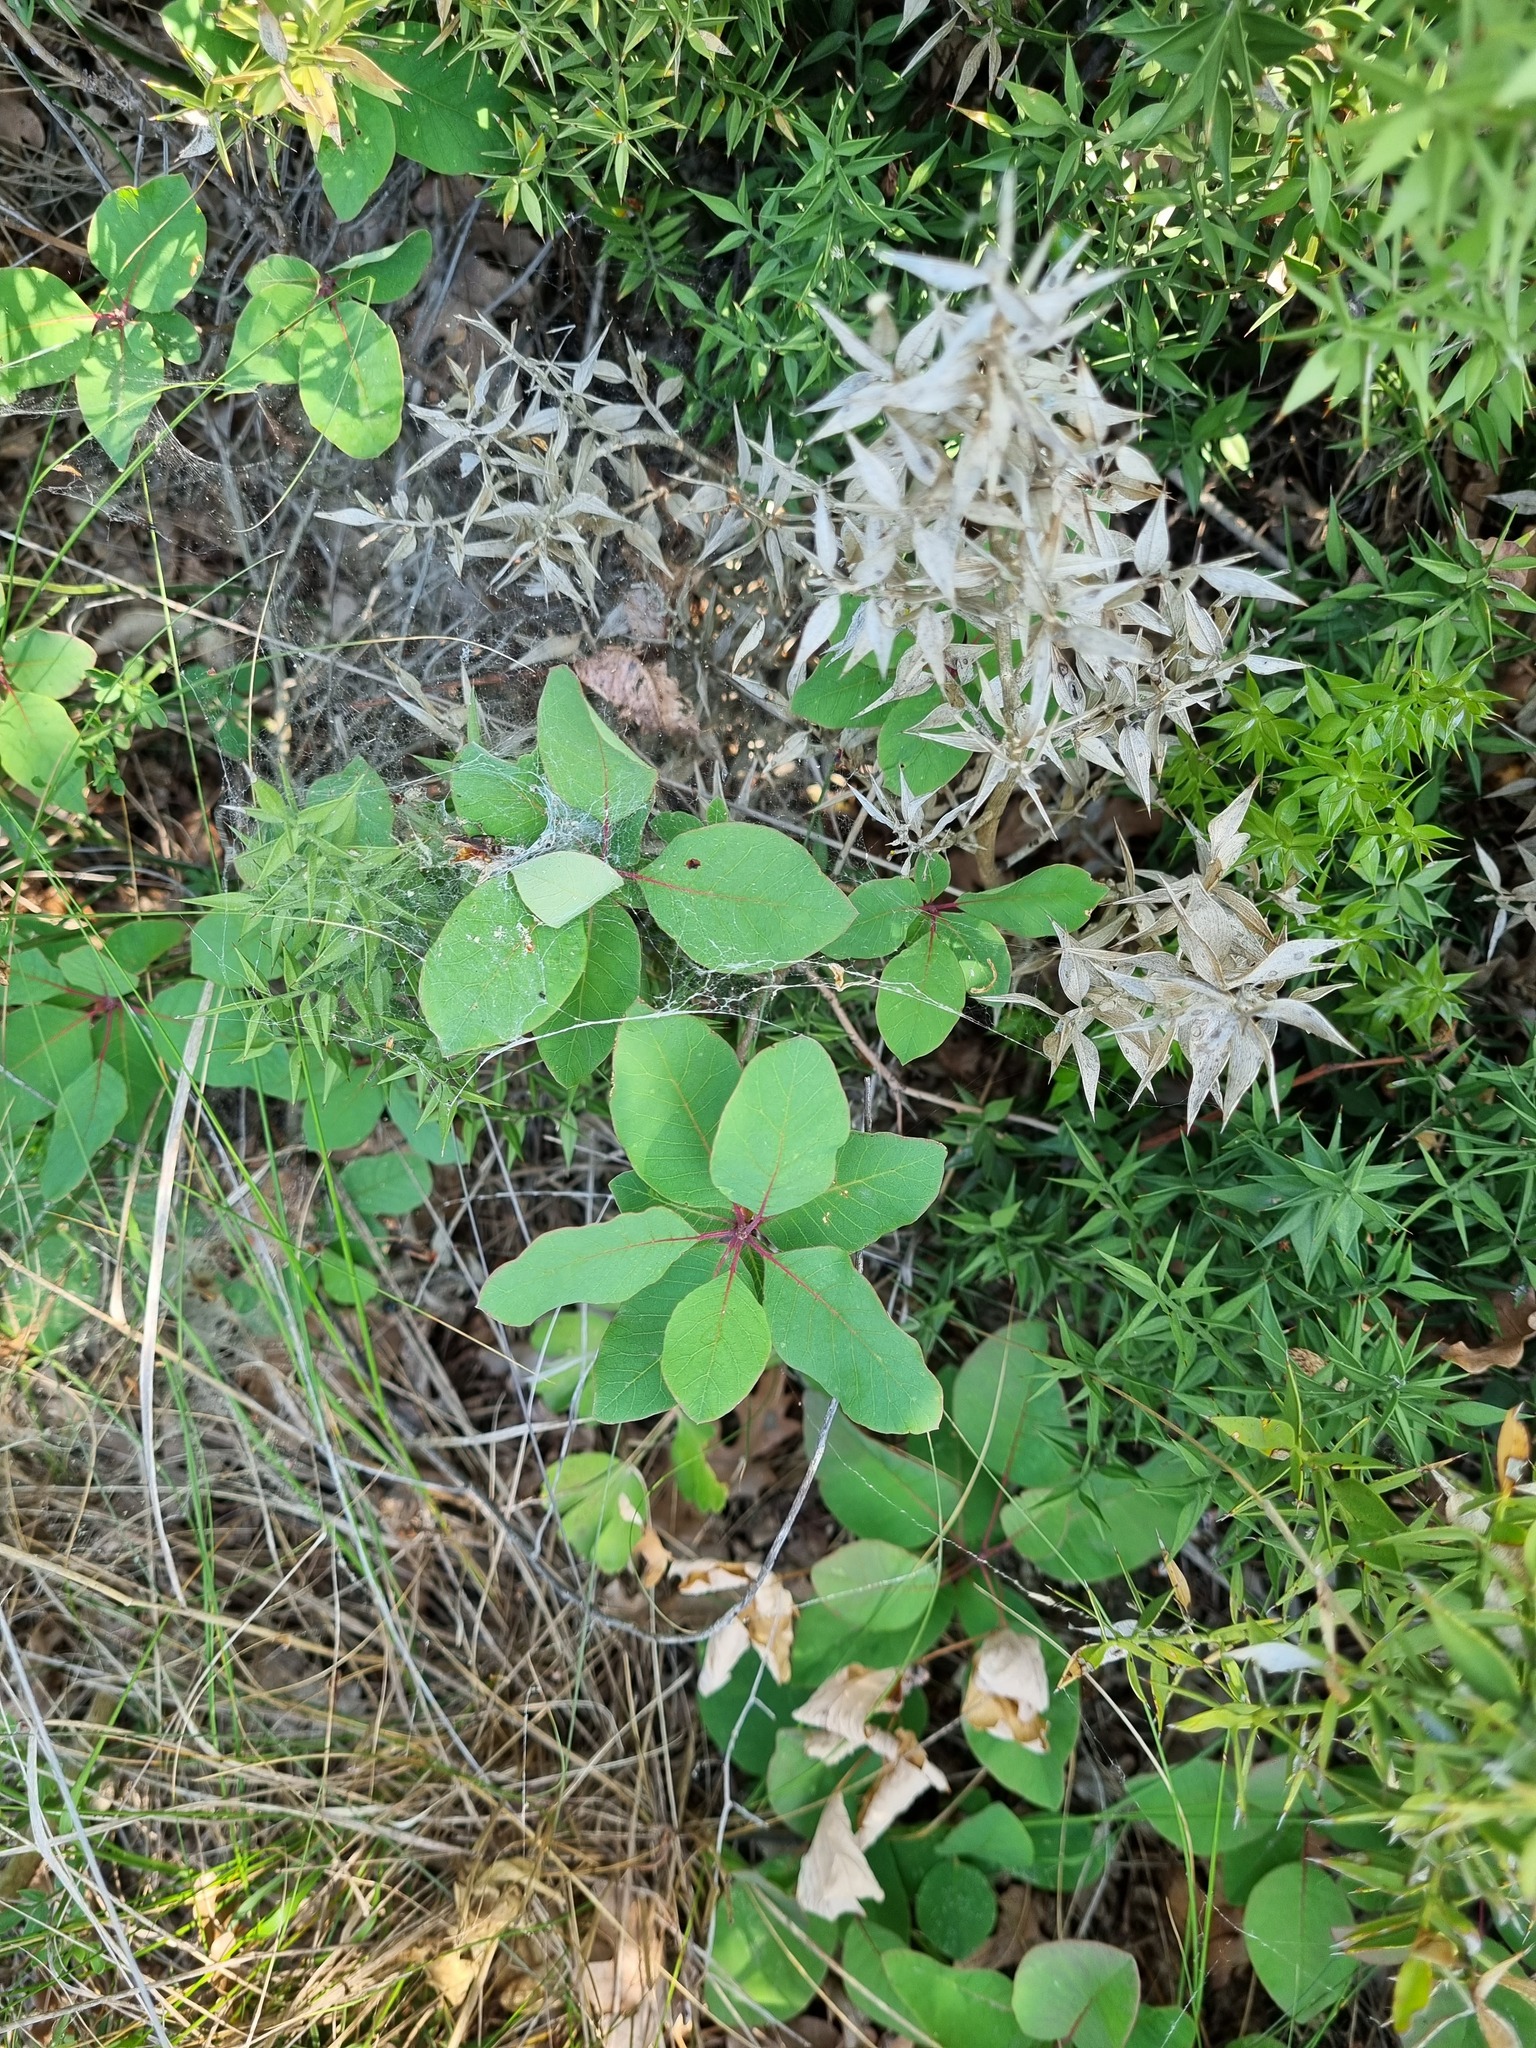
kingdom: Plantae
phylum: Tracheophyta
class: Magnoliopsida
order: Sapindales
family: Anacardiaceae
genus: Cotinus
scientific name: Cotinus coggygria
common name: Smoke-tree
